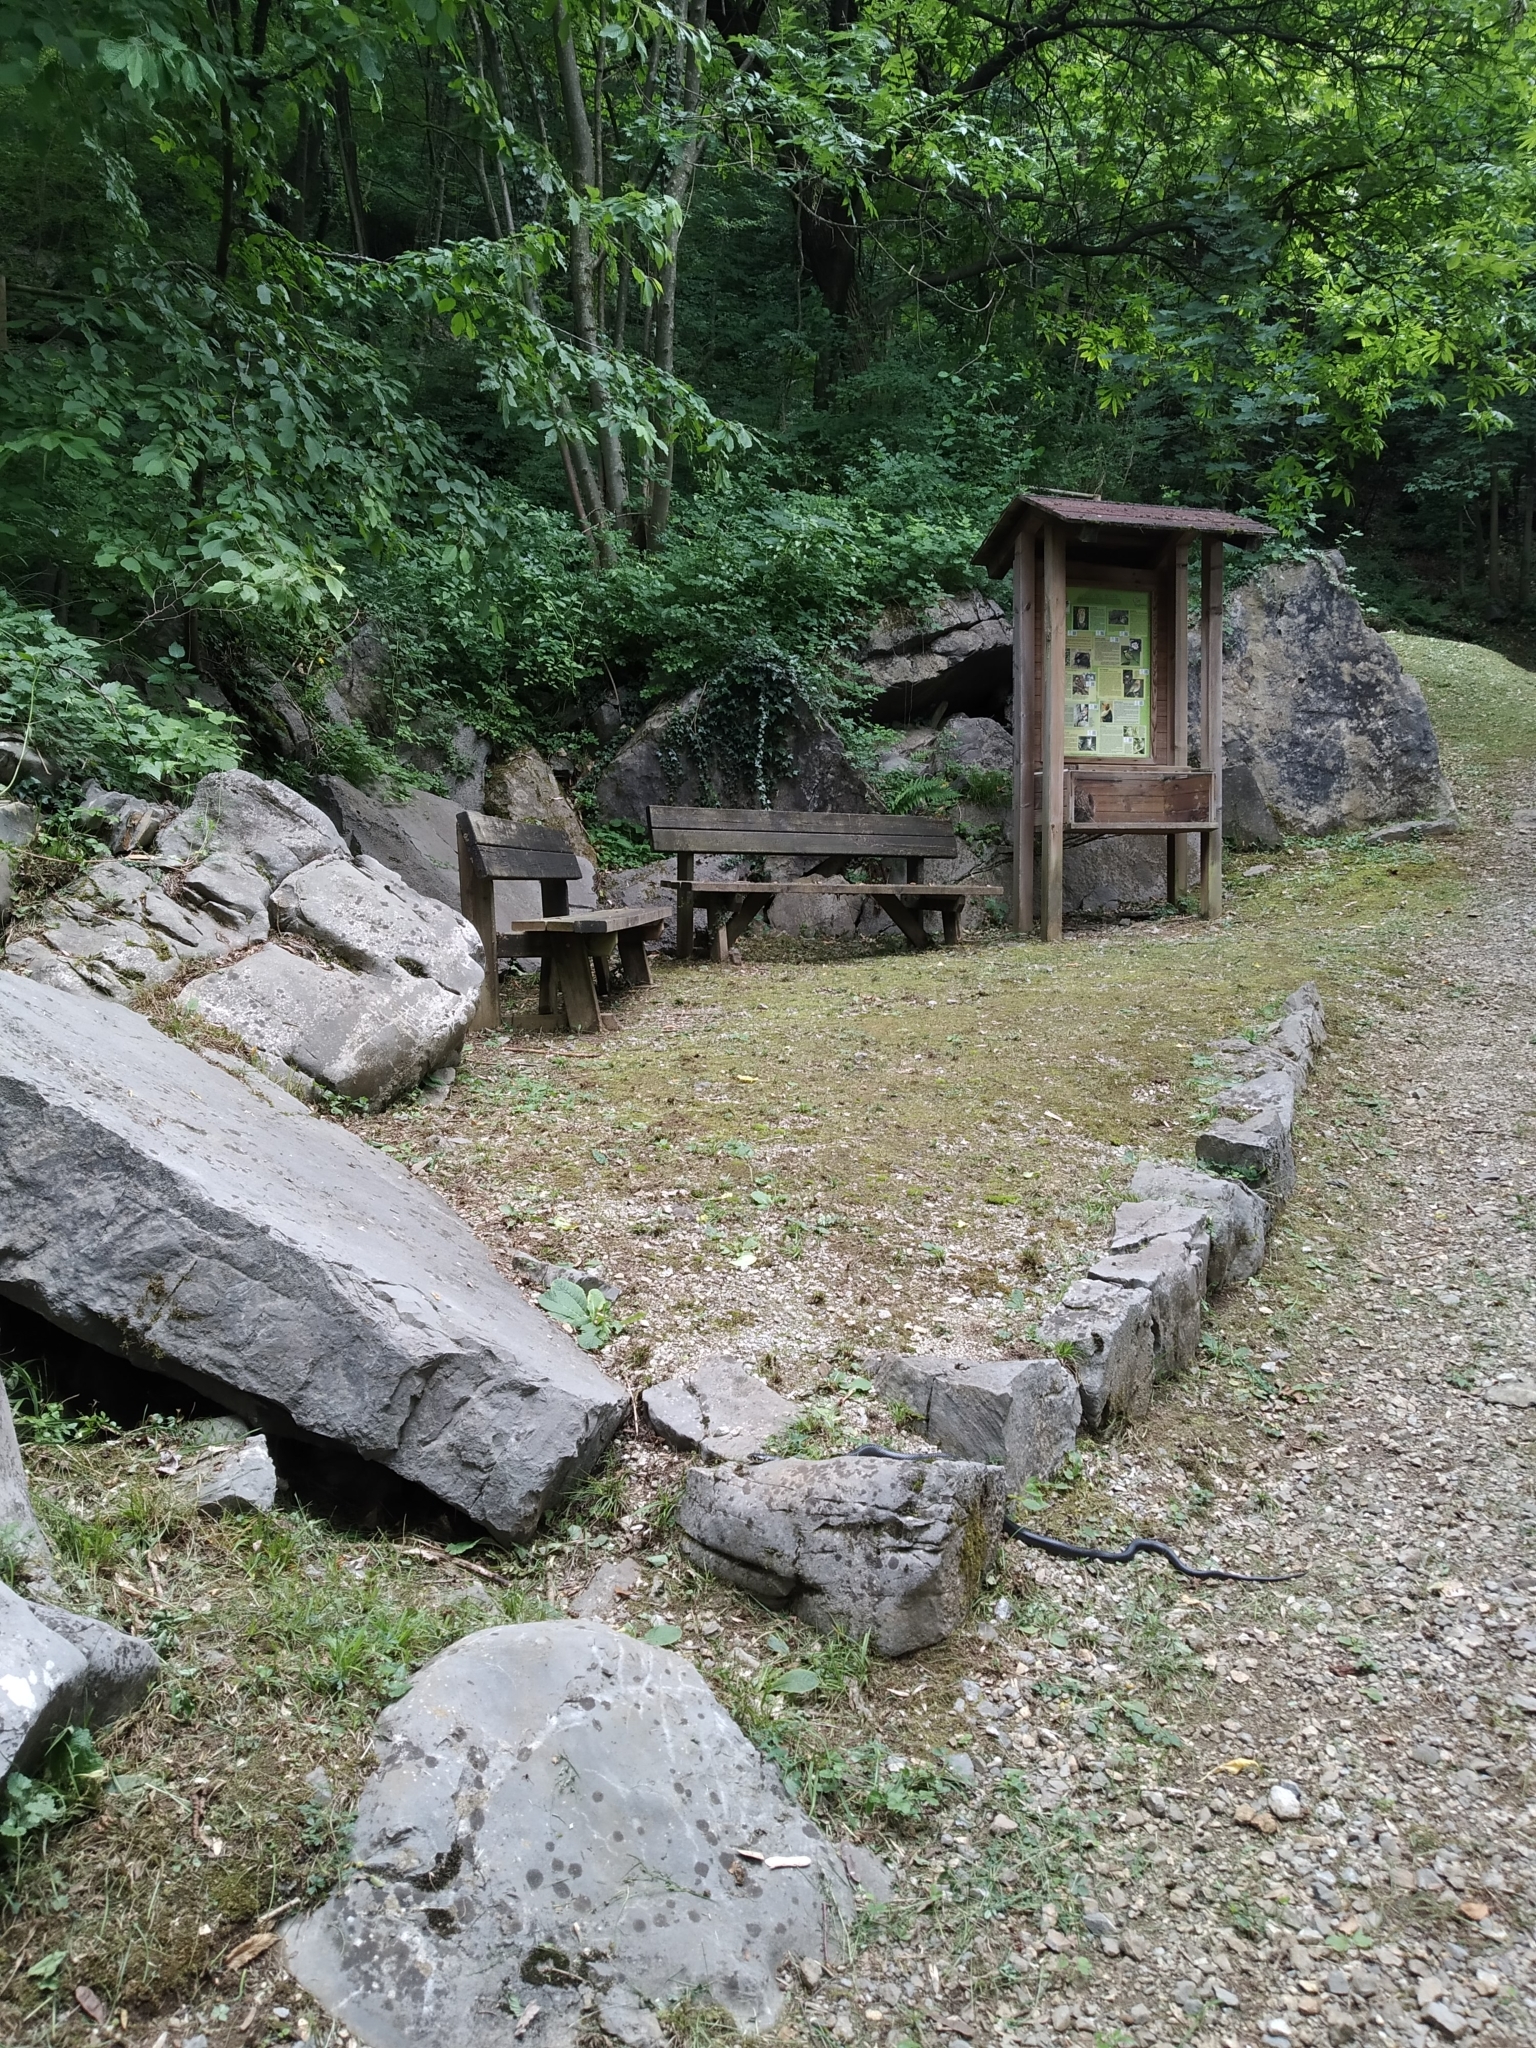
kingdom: Animalia
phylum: Chordata
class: Squamata
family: Colubridae
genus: Hierophis
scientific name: Hierophis viridiflavus
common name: Green whip snake
